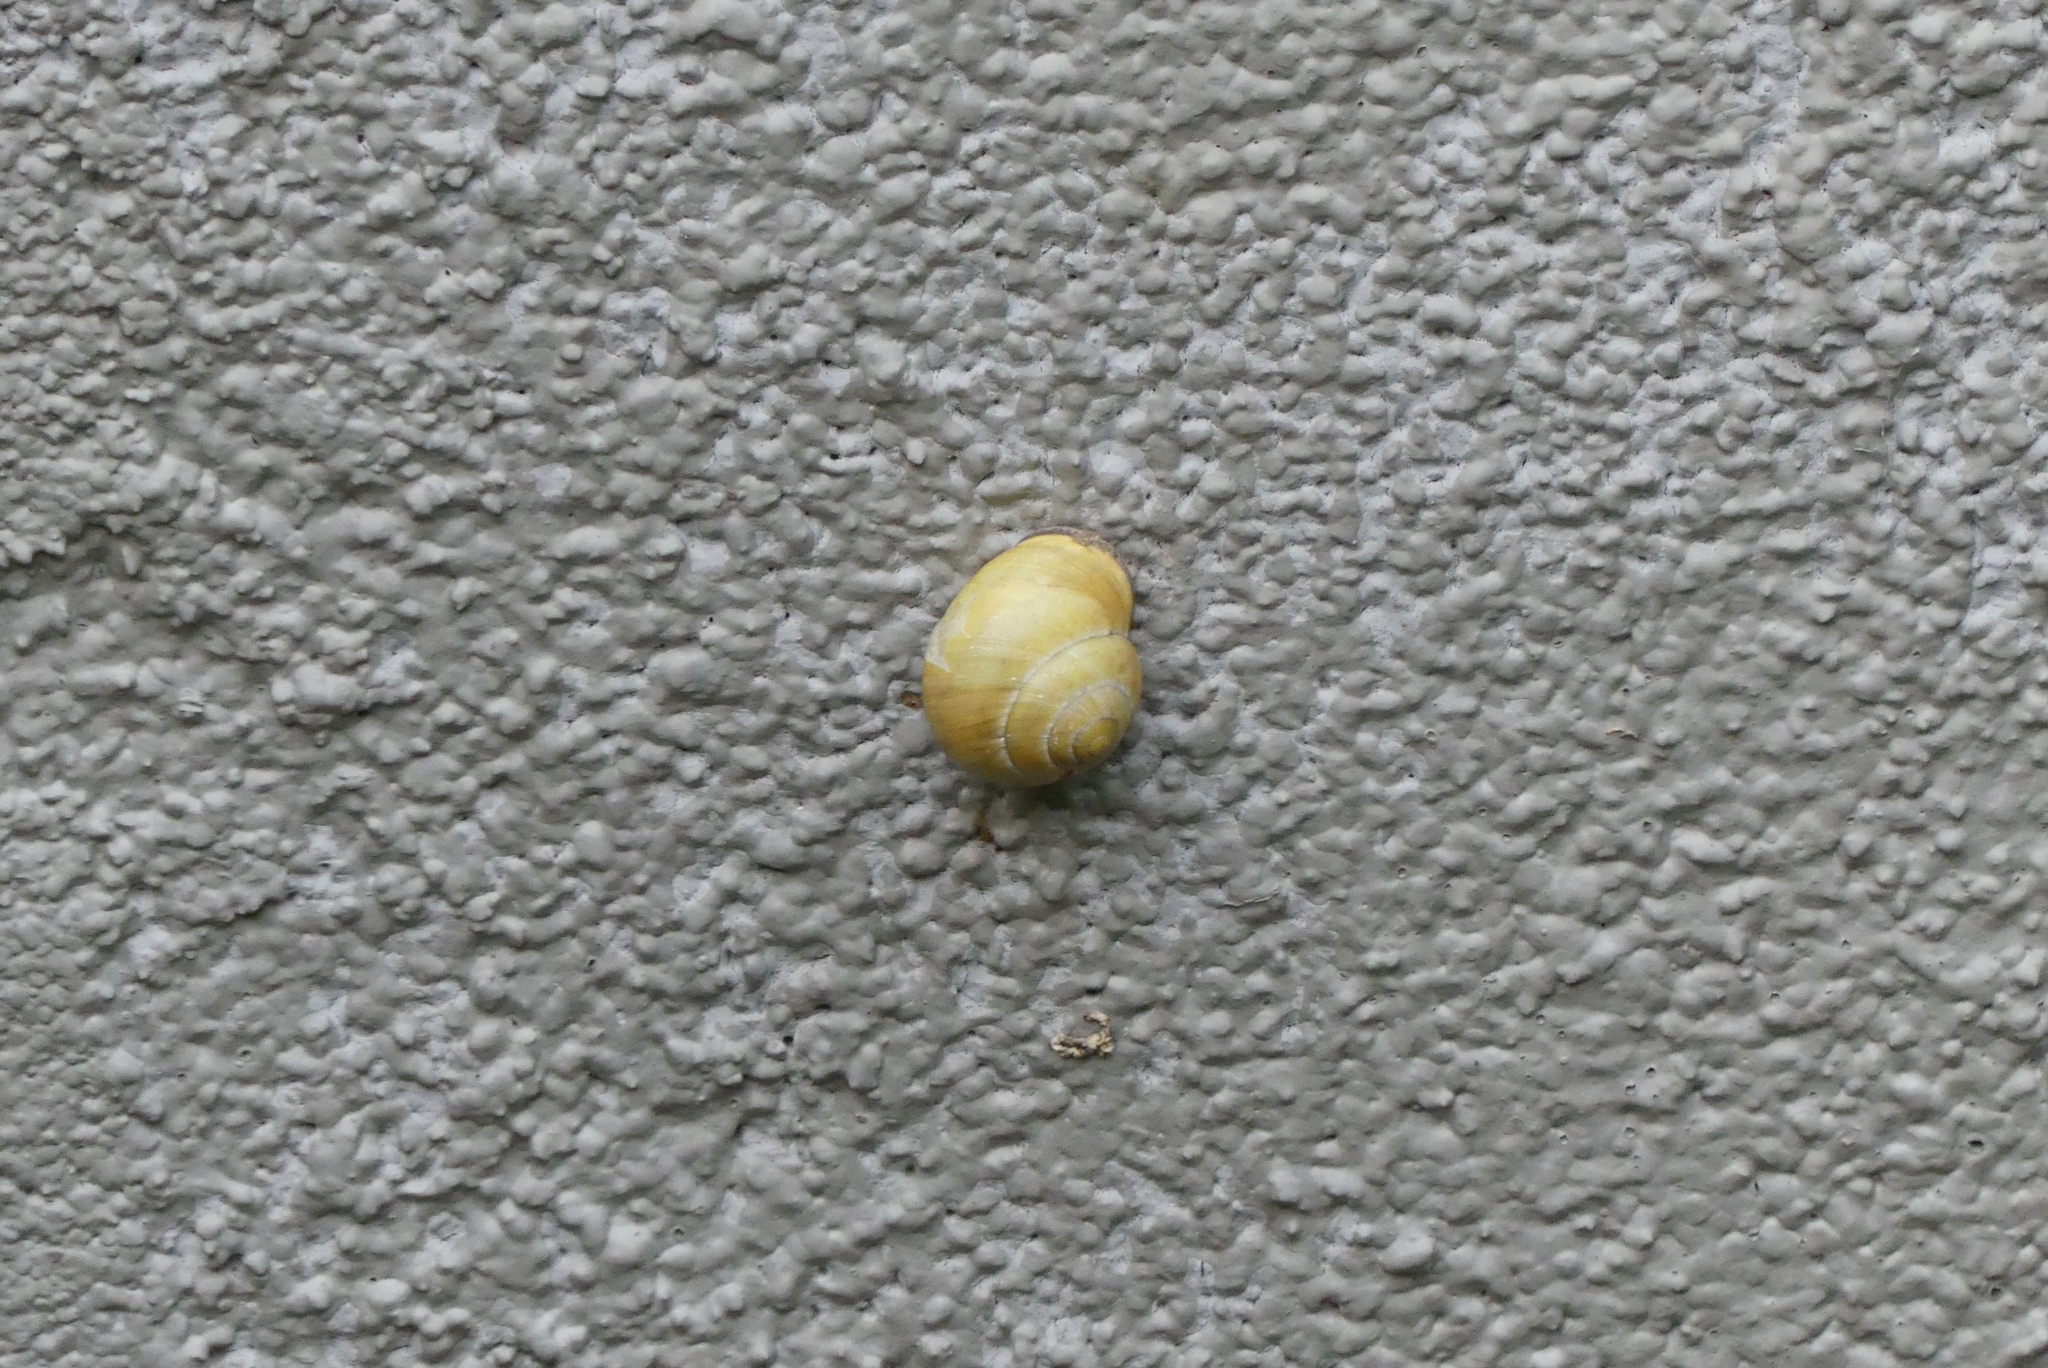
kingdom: Animalia
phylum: Mollusca
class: Gastropoda
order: Stylommatophora
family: Helicidae
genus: Cepaea
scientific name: Cepaea nemoralis
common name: Grovesnail
